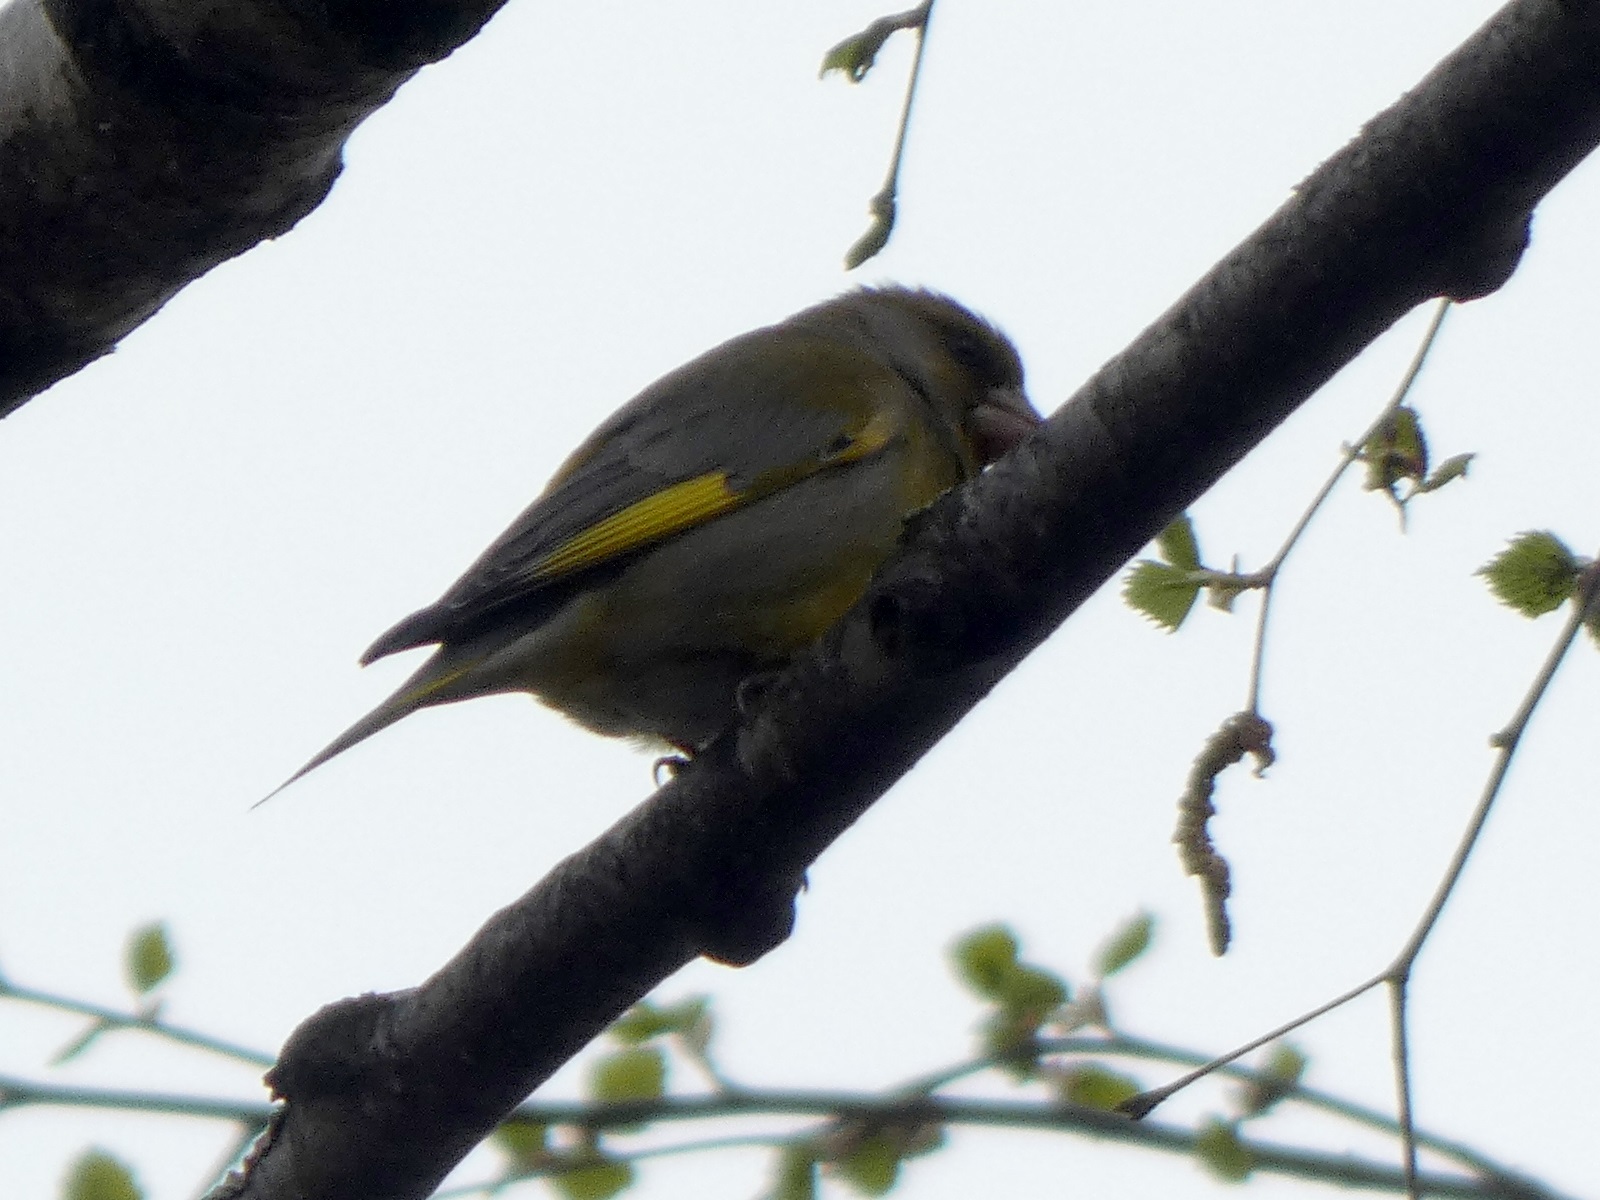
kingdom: Plantae
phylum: Tracheophyta
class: Liliopsida
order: Poales
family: Poaceae
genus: Chloris
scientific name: Chloris chloris
